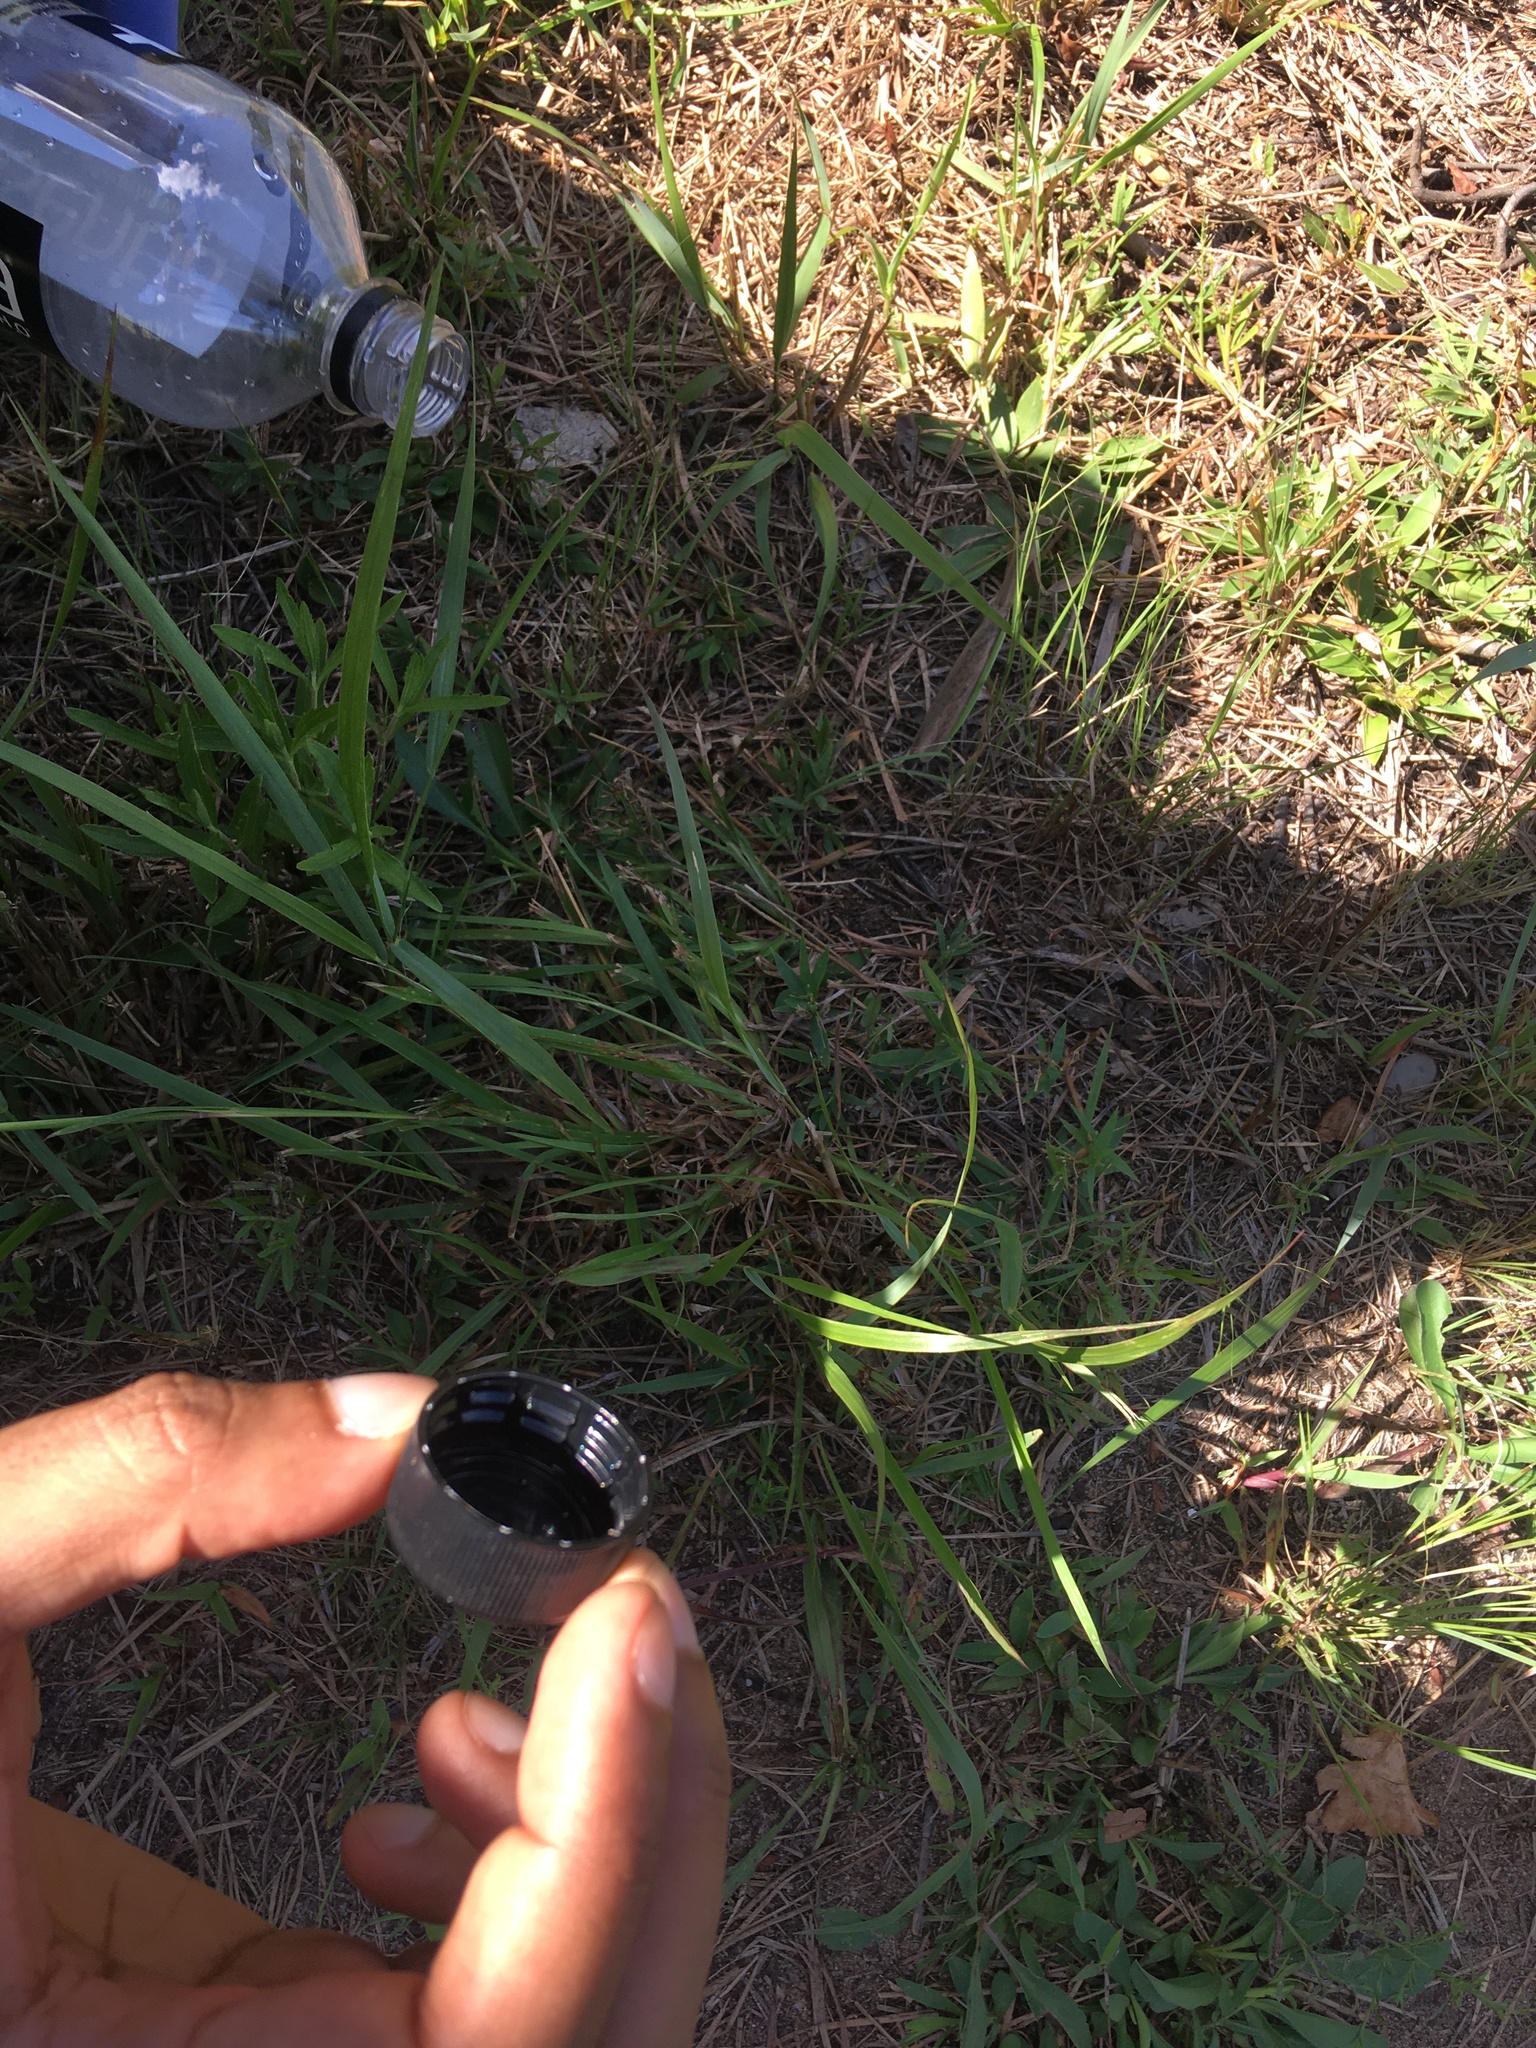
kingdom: Animalia
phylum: Arthropoda
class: Insecta
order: Mantodea
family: Mantidae
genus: Tenodera
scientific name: Tenodera sinensis
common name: Chinese mantis
